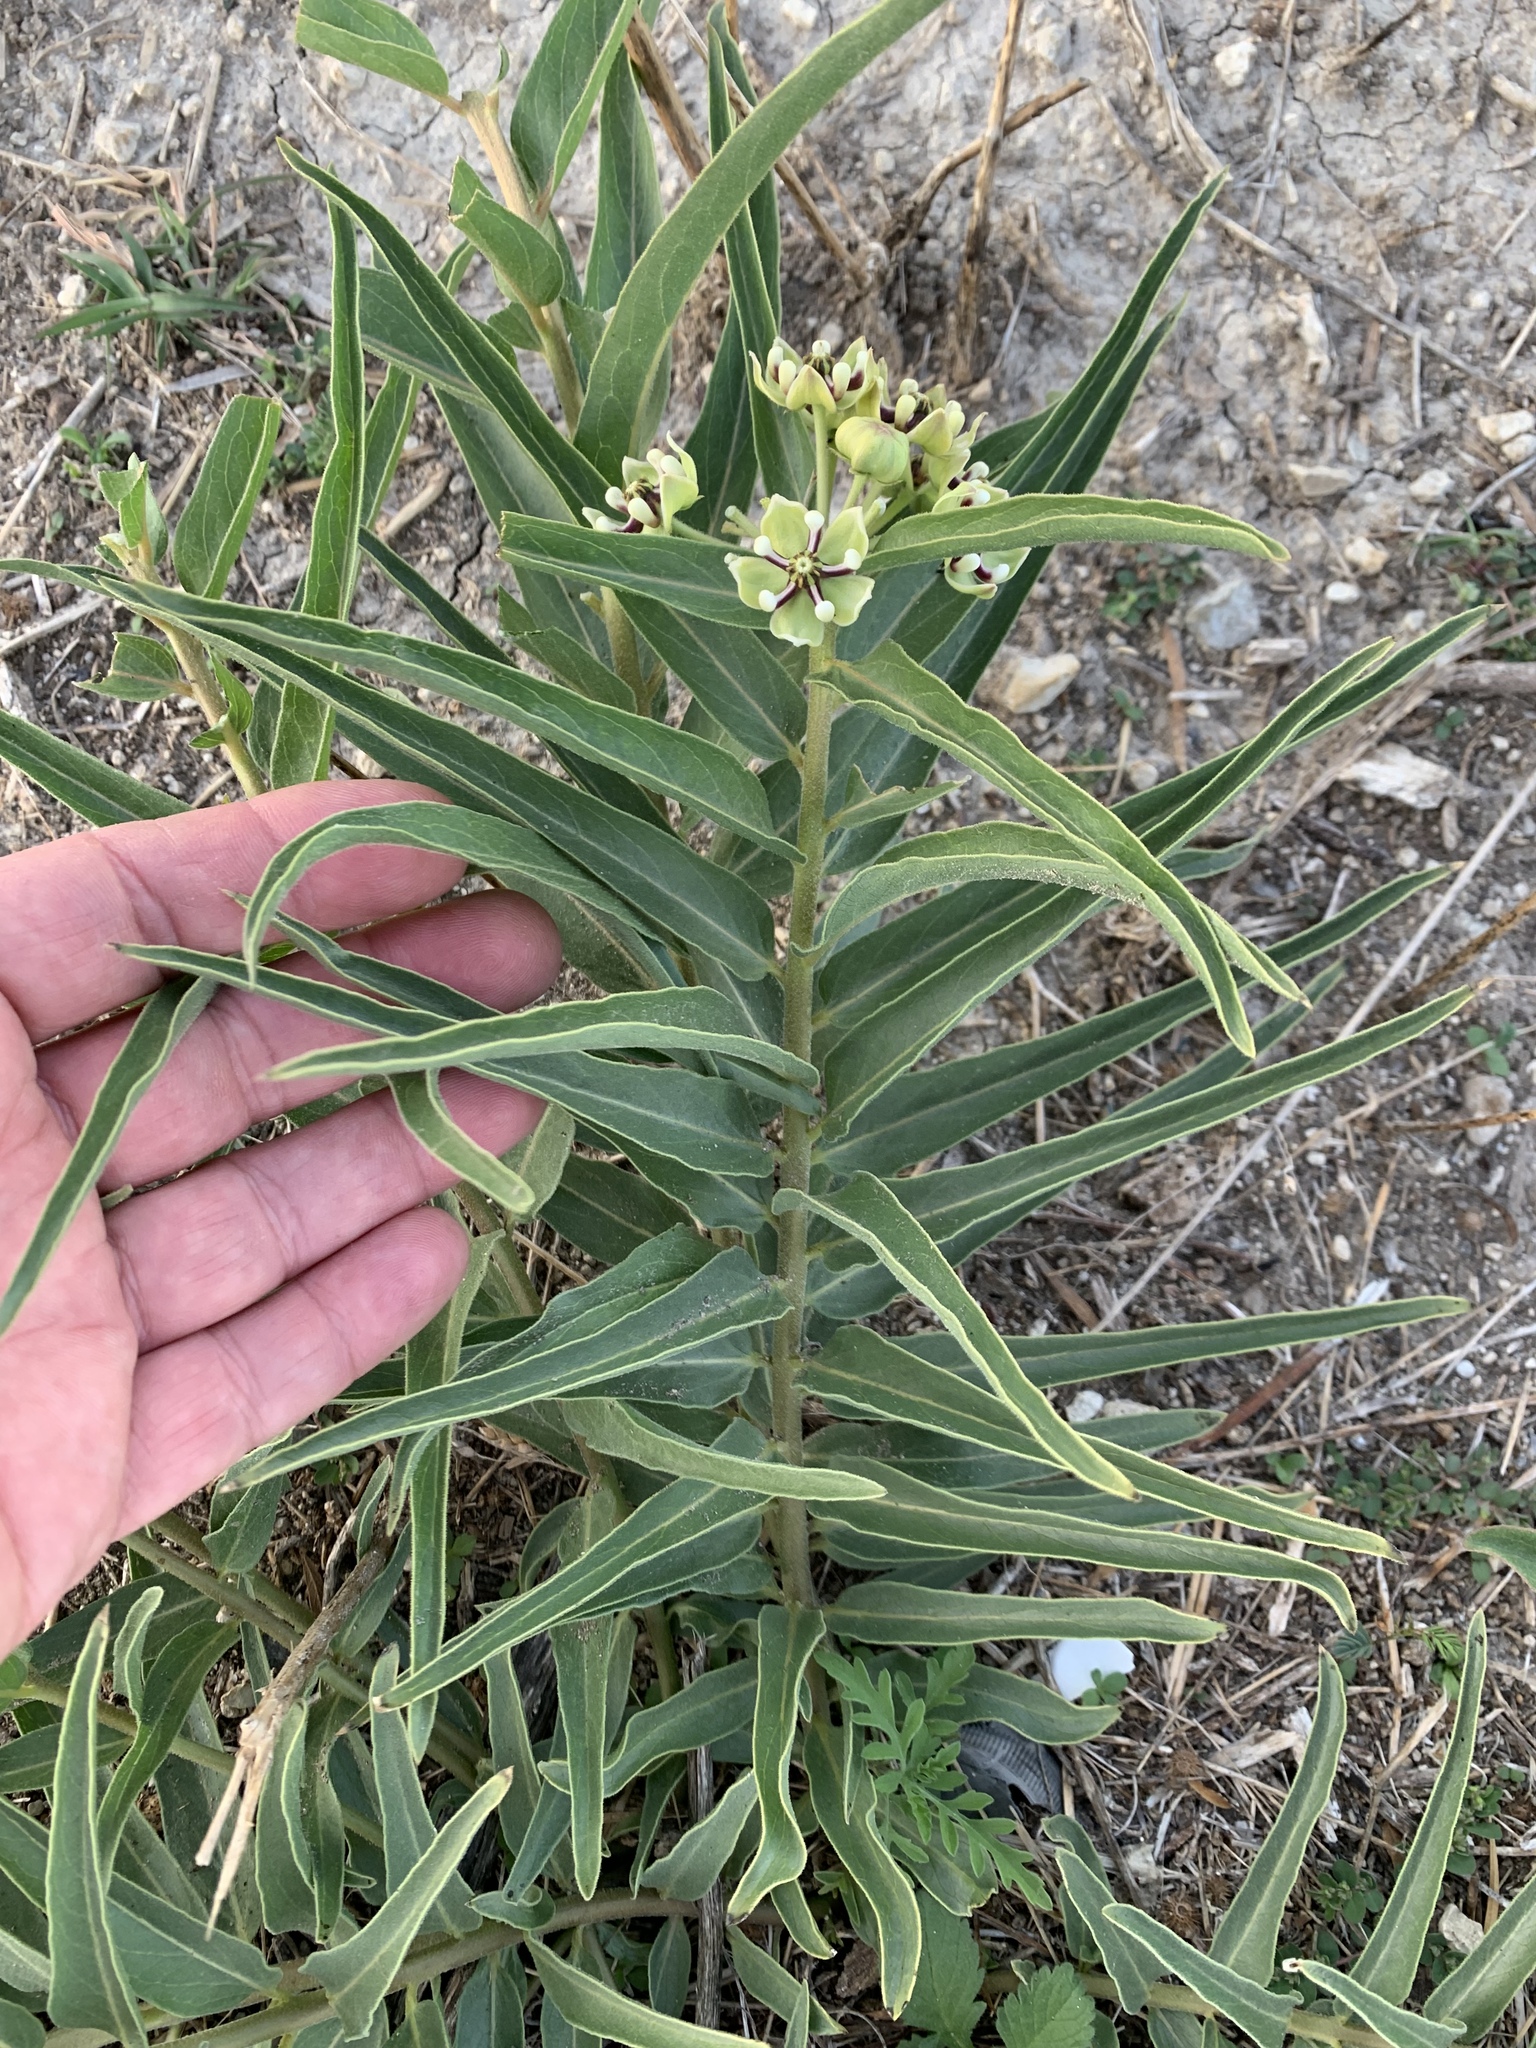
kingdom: Plantae
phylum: Tracheophyta
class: Magnoliopsida
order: Gentianales
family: Apocynaceae
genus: Asclepias
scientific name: Asclepias asperula
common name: Antelope horns
